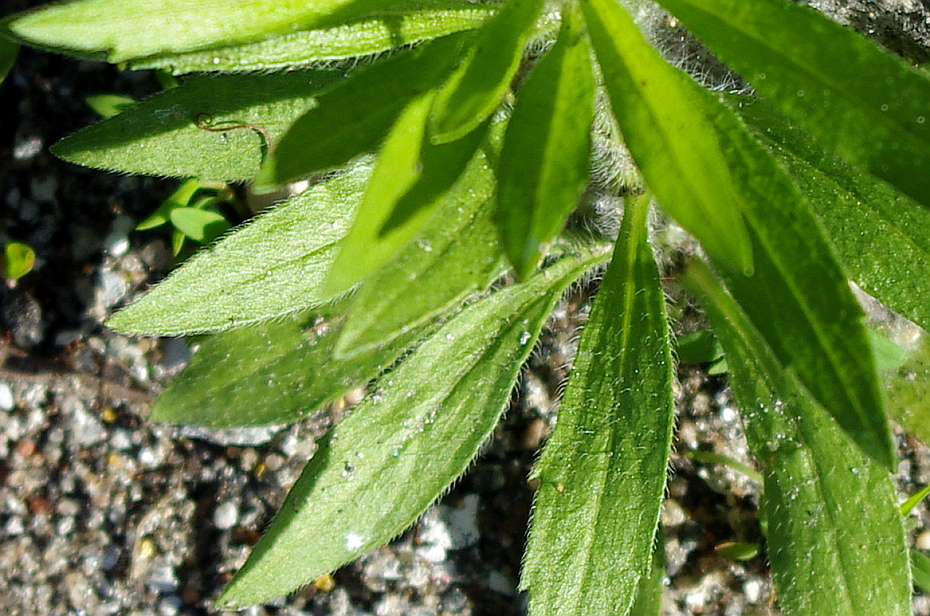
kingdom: Plantae
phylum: Tracheophyta
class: Magnoliopsida
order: Asterales
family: Asteraceae
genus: Erigeron
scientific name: Erigeron canadensis
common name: Canadian fleabane
